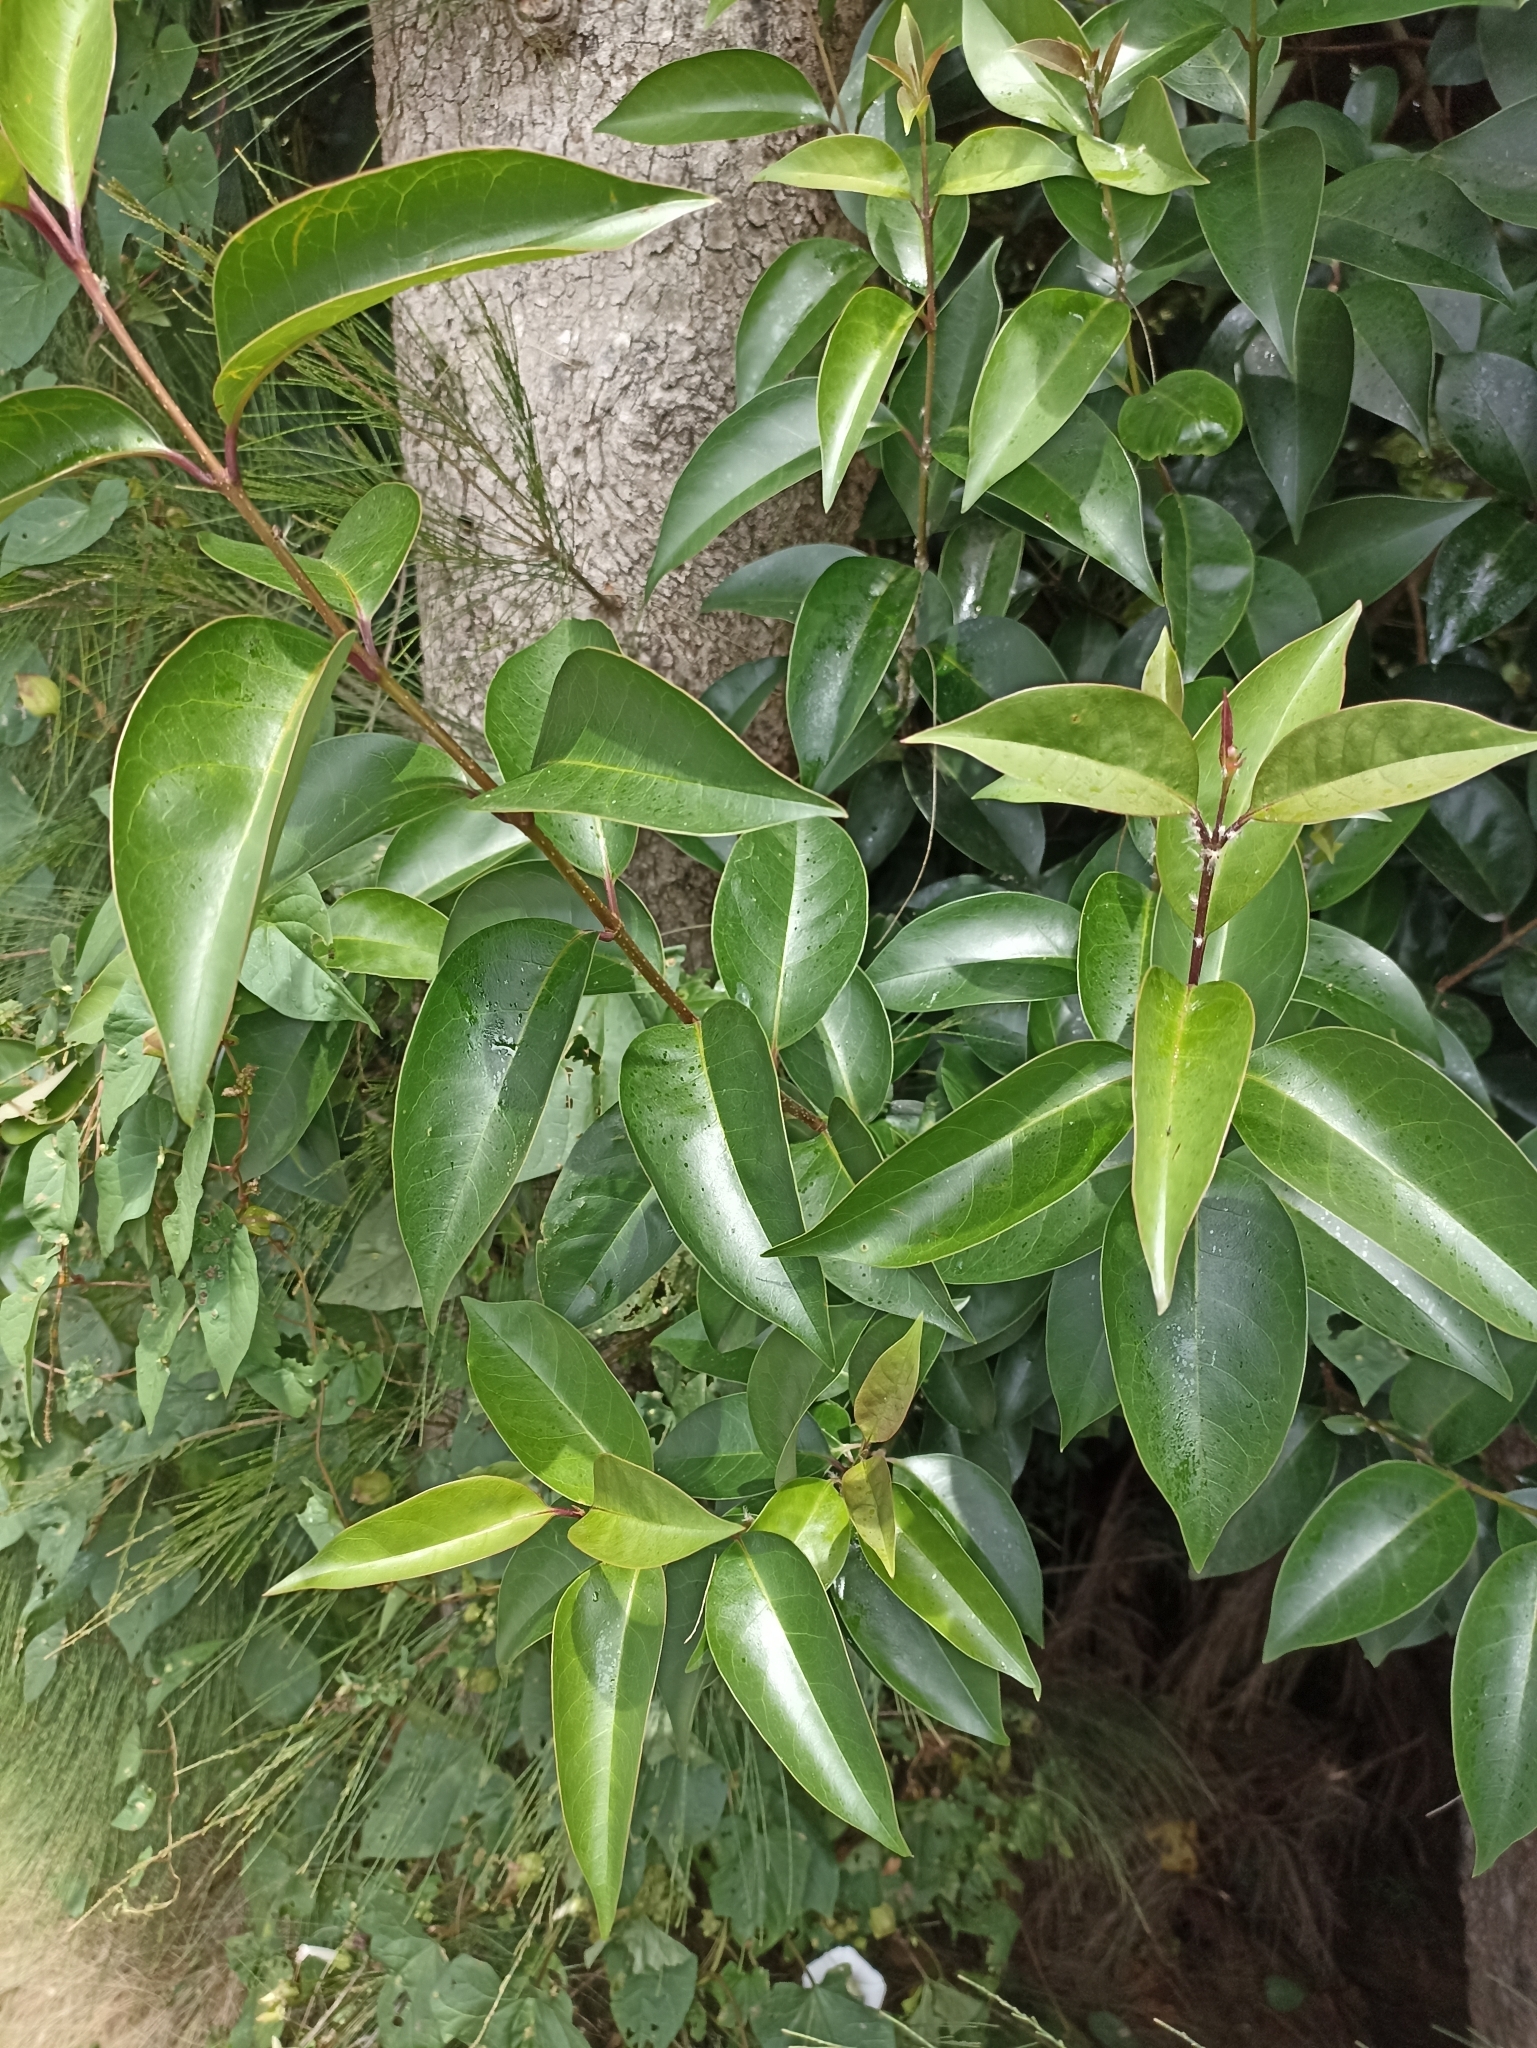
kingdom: Plantae
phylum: Tracheophyta
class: Magnoliopsida
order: Lamiales
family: Oleaceae
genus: Ligustrum
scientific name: Ligustrum lucidum
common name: Glossy privet
